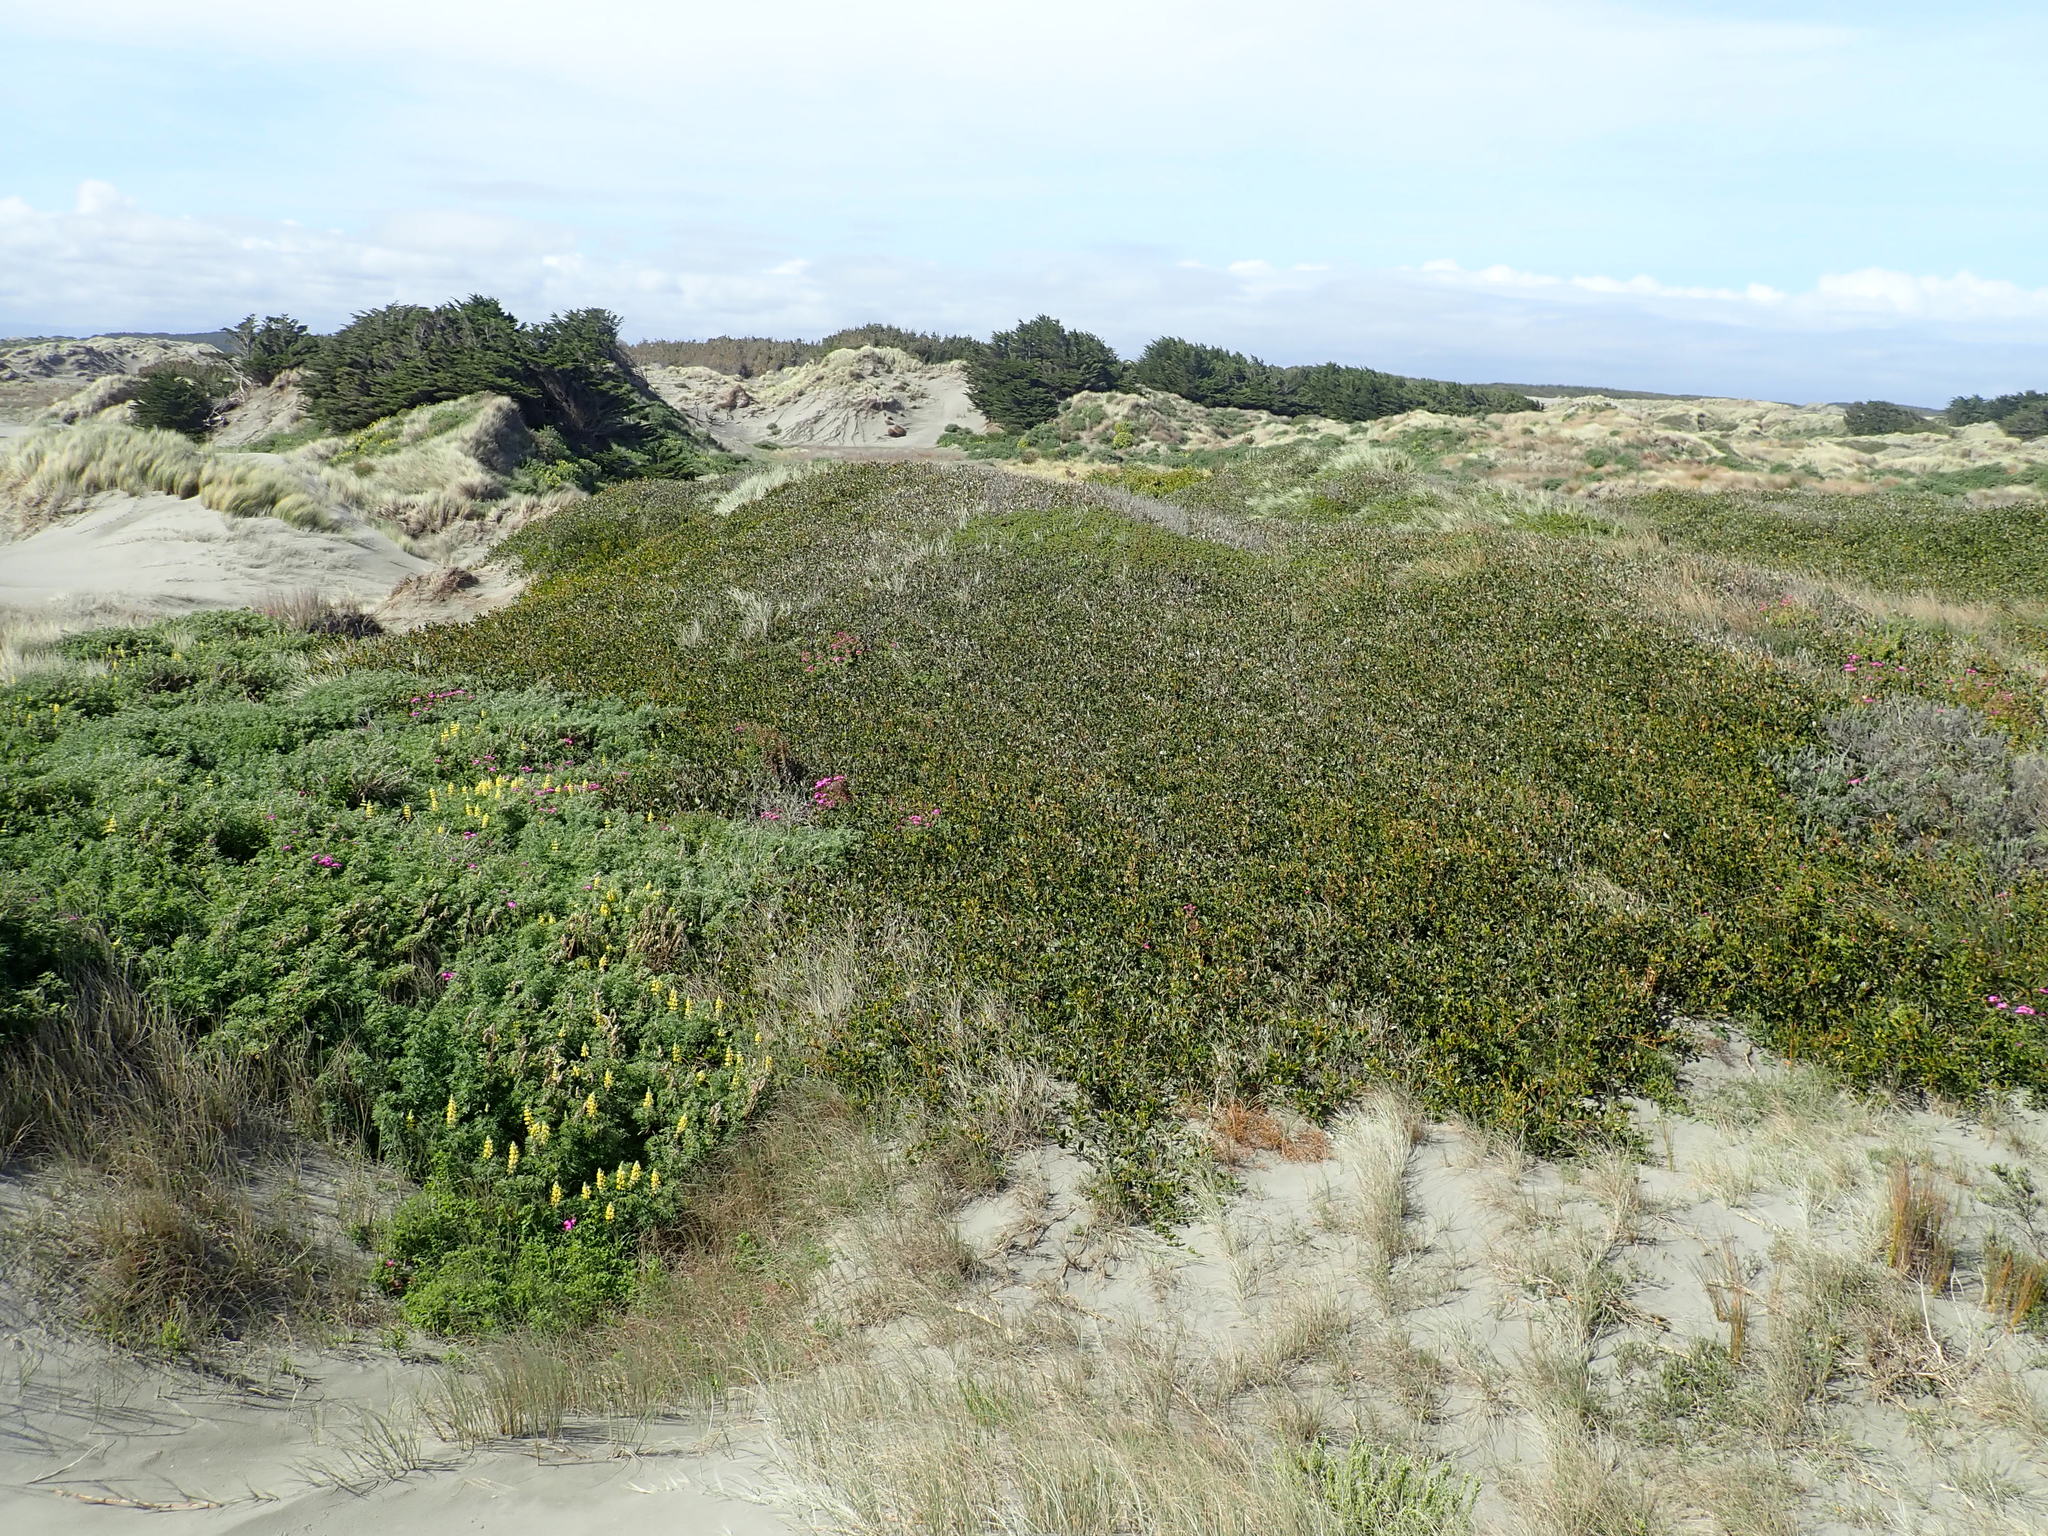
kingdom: Plantae
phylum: Tracheophyta
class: Magnoliopsida
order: Fabales
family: Fabaceae
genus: Acacia
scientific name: Acacia longifolia
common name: Sydney golden wattle
